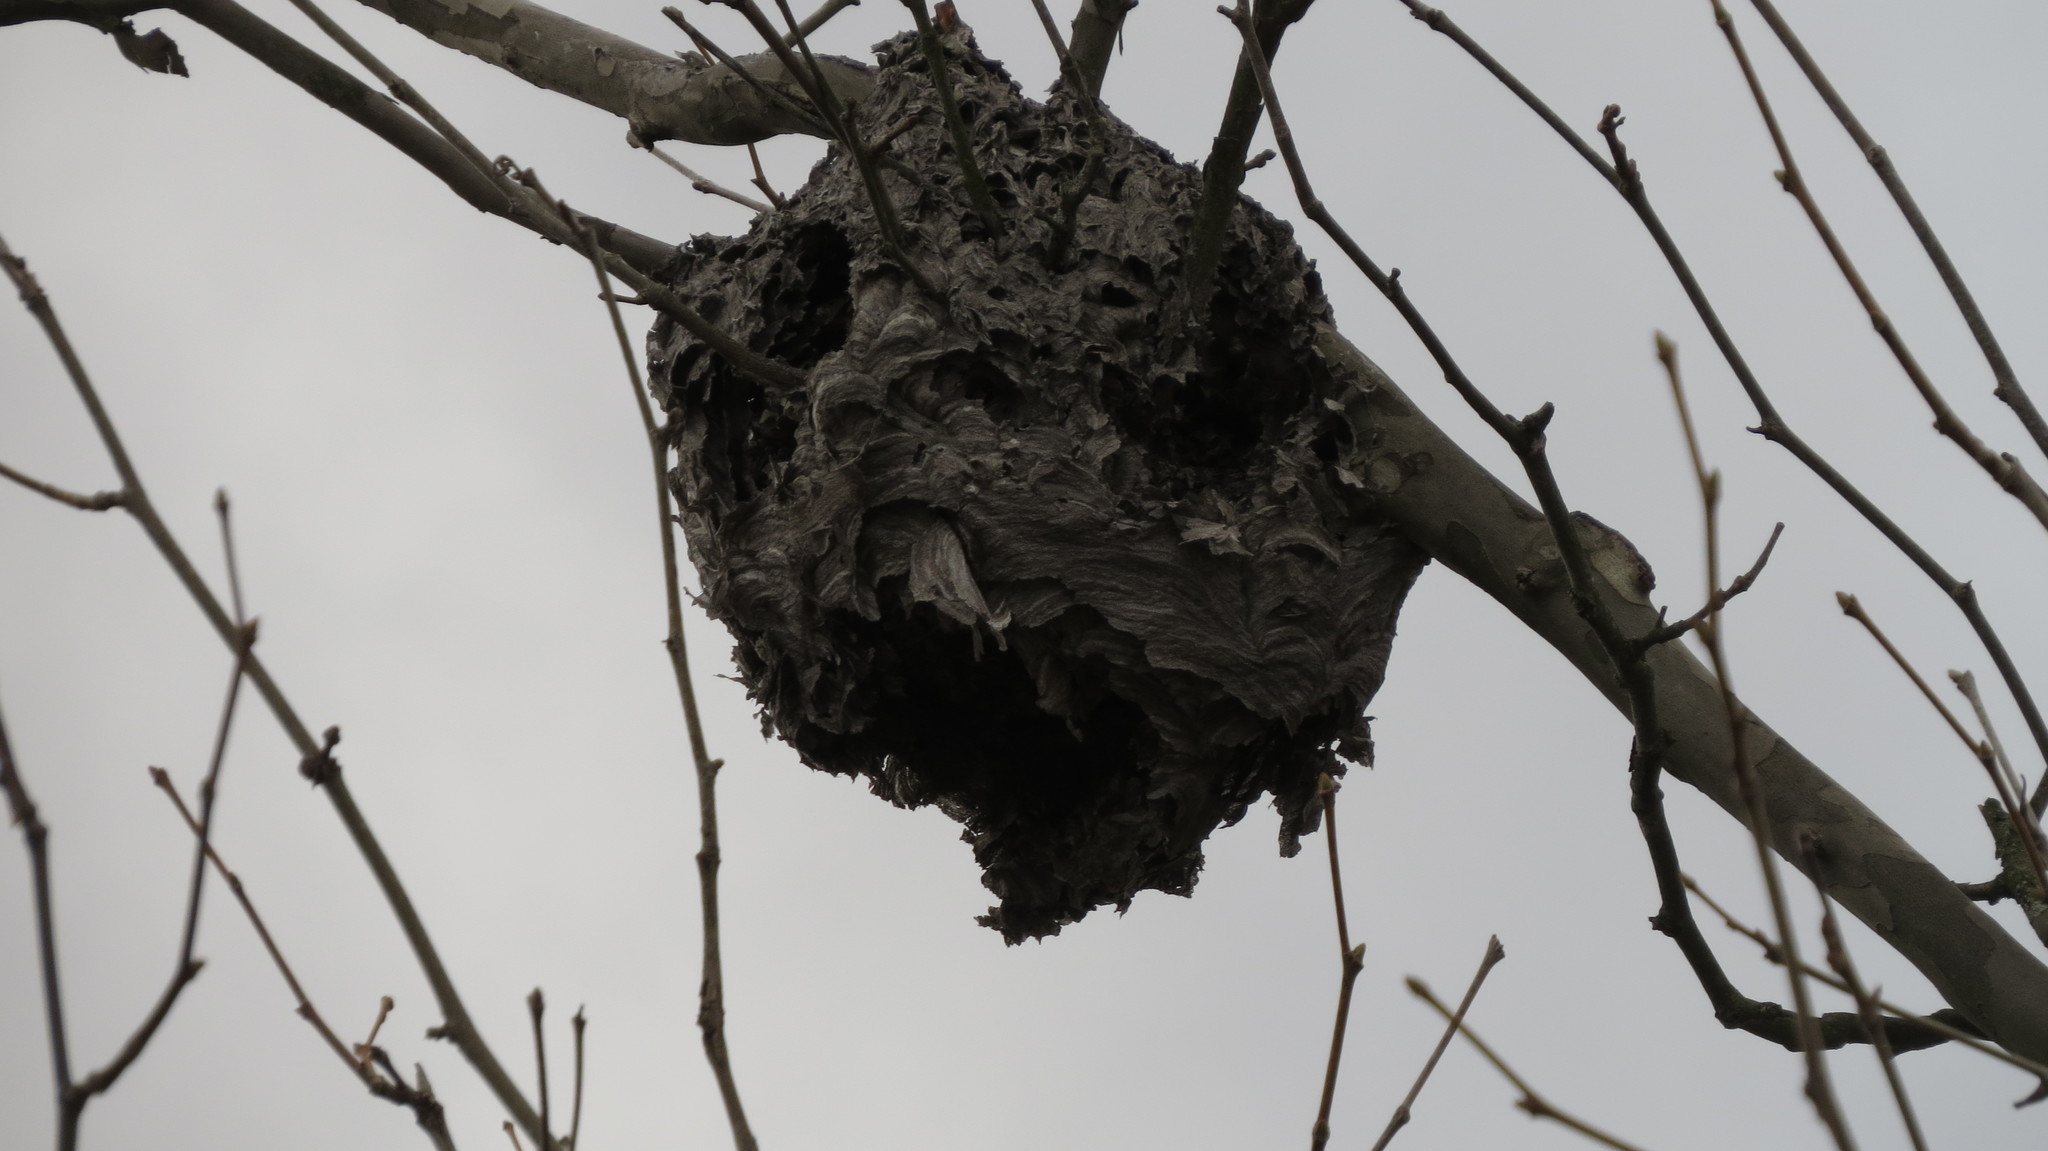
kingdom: Animalia
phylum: Arthropoda
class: Insecta
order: Hymenoptera
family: Vespidae
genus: Dolichovespula
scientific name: Dolichovespula maculata
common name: Bald-faced hornet
